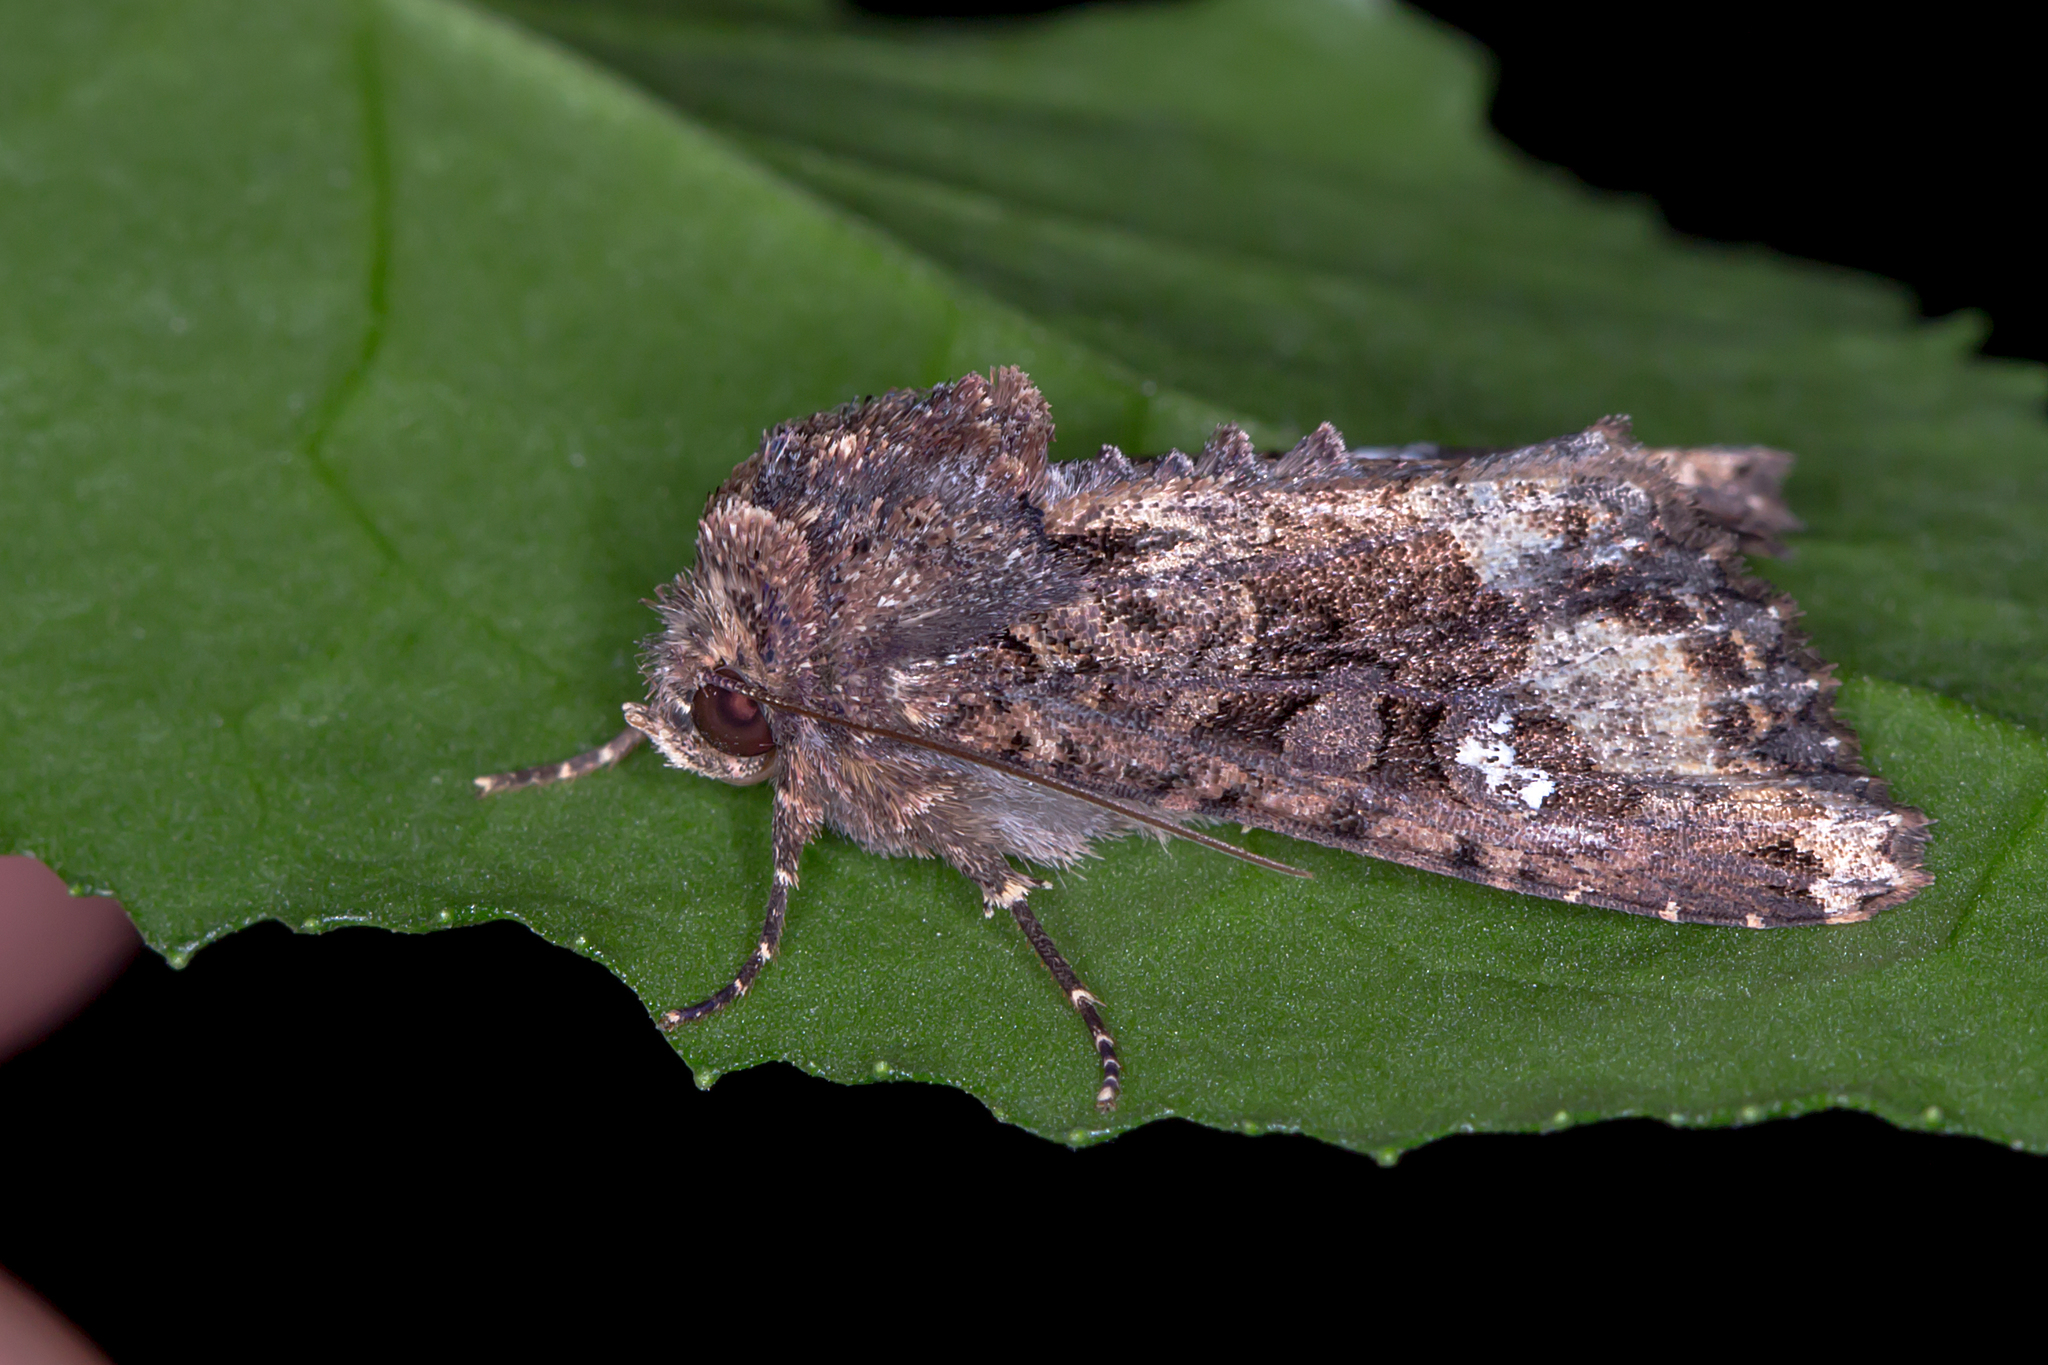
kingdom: Animalia
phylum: Arthropoda
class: Insecta
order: Lepidoptera
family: Noctuidae
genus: Neumichtis
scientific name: Neumichtis saliaris
